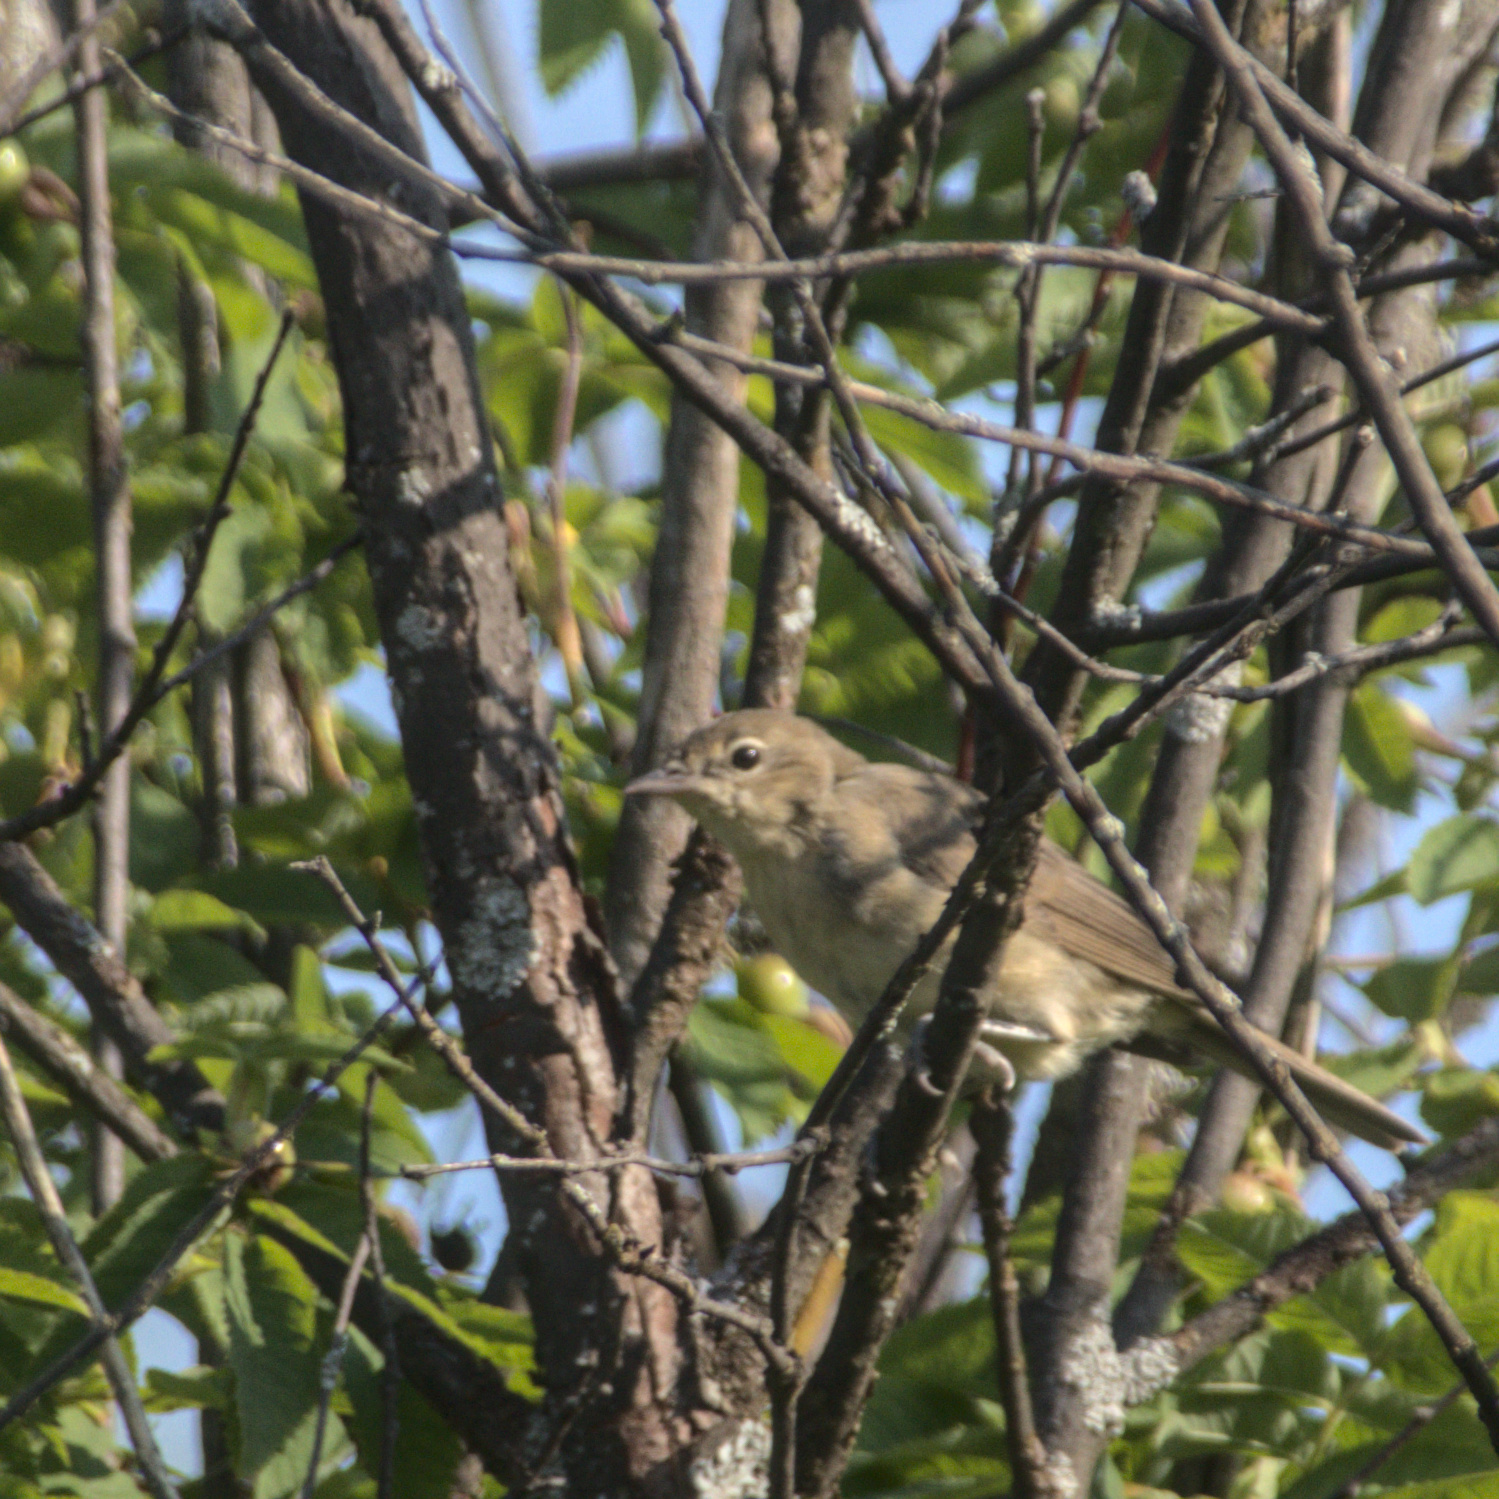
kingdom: Animalia
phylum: Chordata
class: Aves
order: Passeriformes
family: Sylviidae
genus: Sylvia
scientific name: Sylvia borin
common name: Garden warbler
